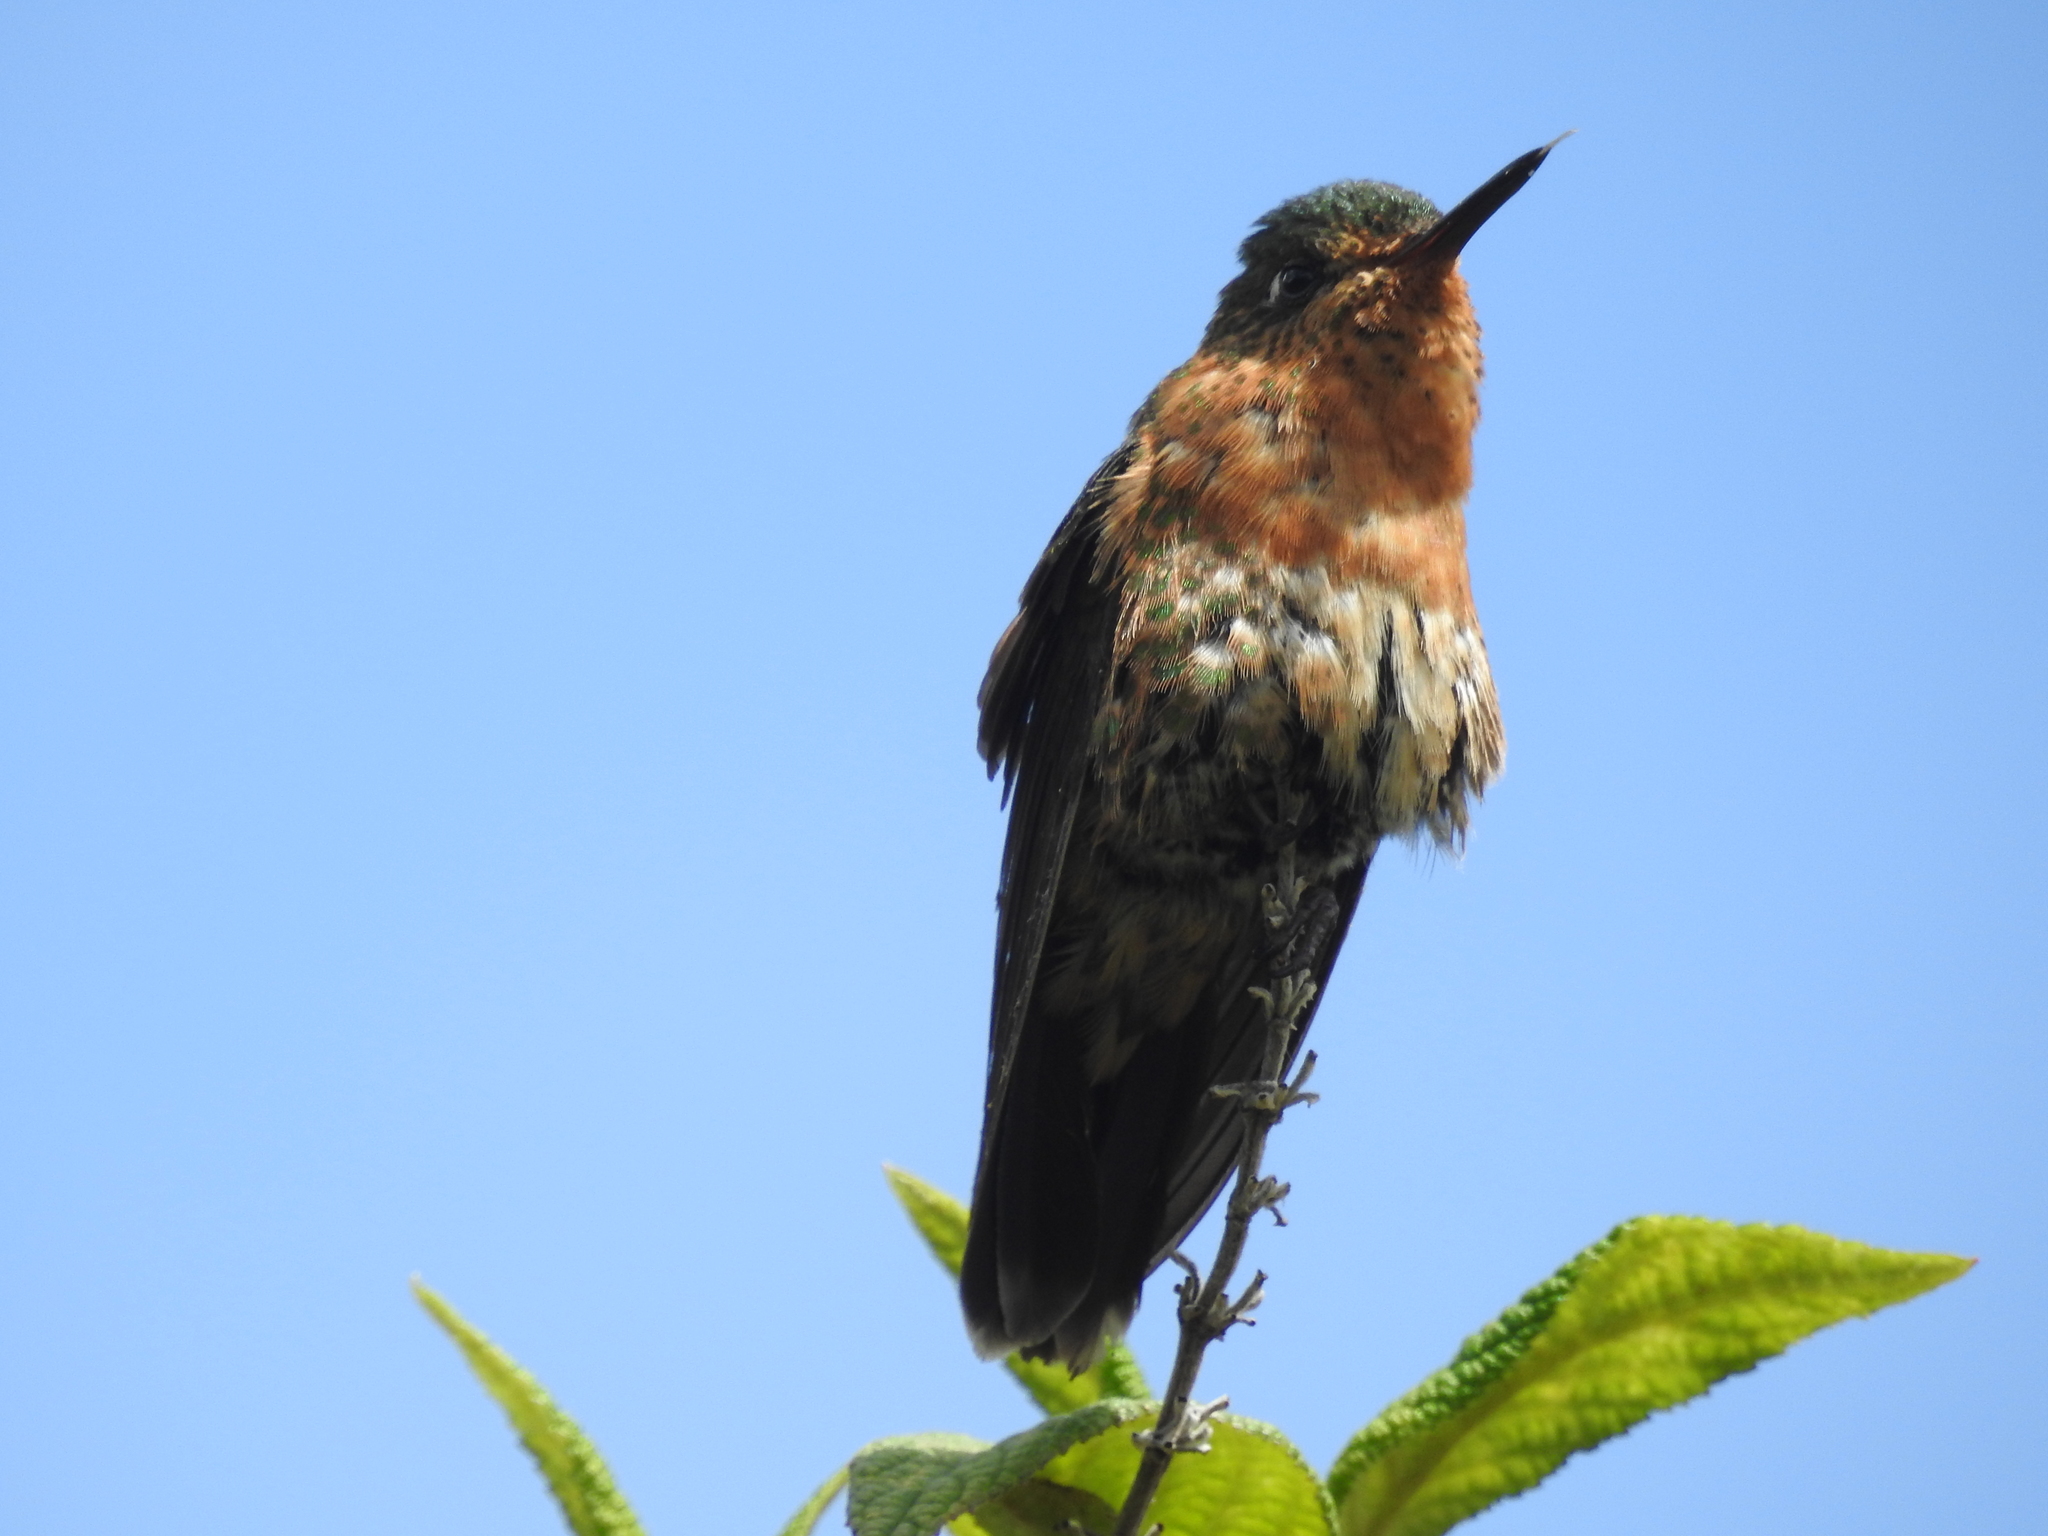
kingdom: Animalia
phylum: Chordata
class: Aves
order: Apodiformes
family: Trochilidae
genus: Metallura
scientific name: Metallura tyrianthina
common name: Tyrian metaltail
